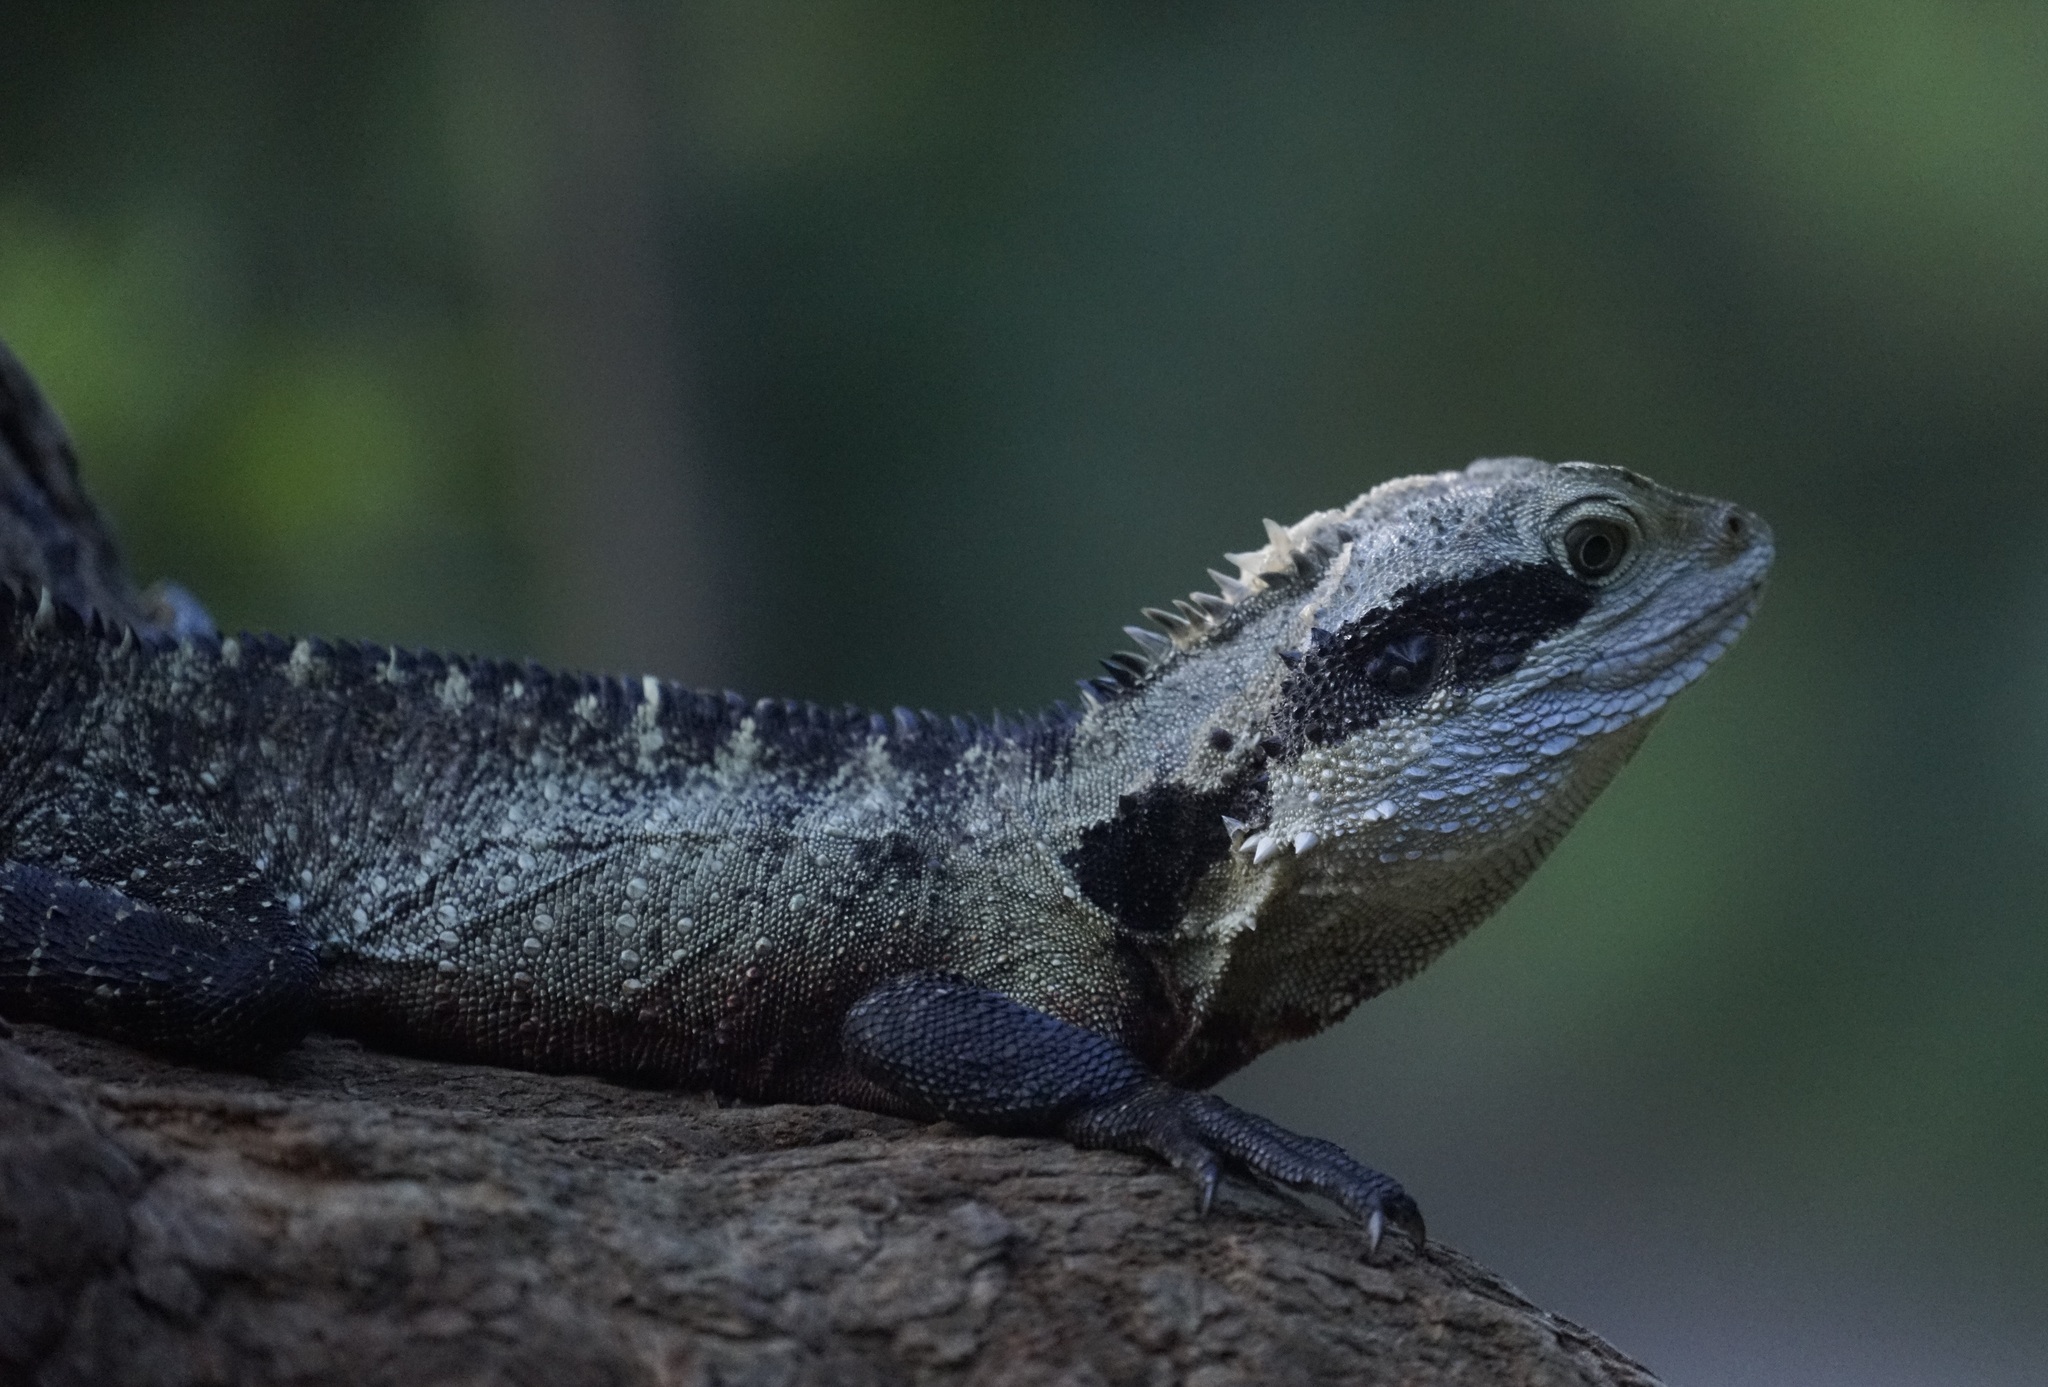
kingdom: Animalia
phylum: Chordata
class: Squamata
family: Agamidae
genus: Intellagama
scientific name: Intellagama lesueurii
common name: Eastern water dragon
